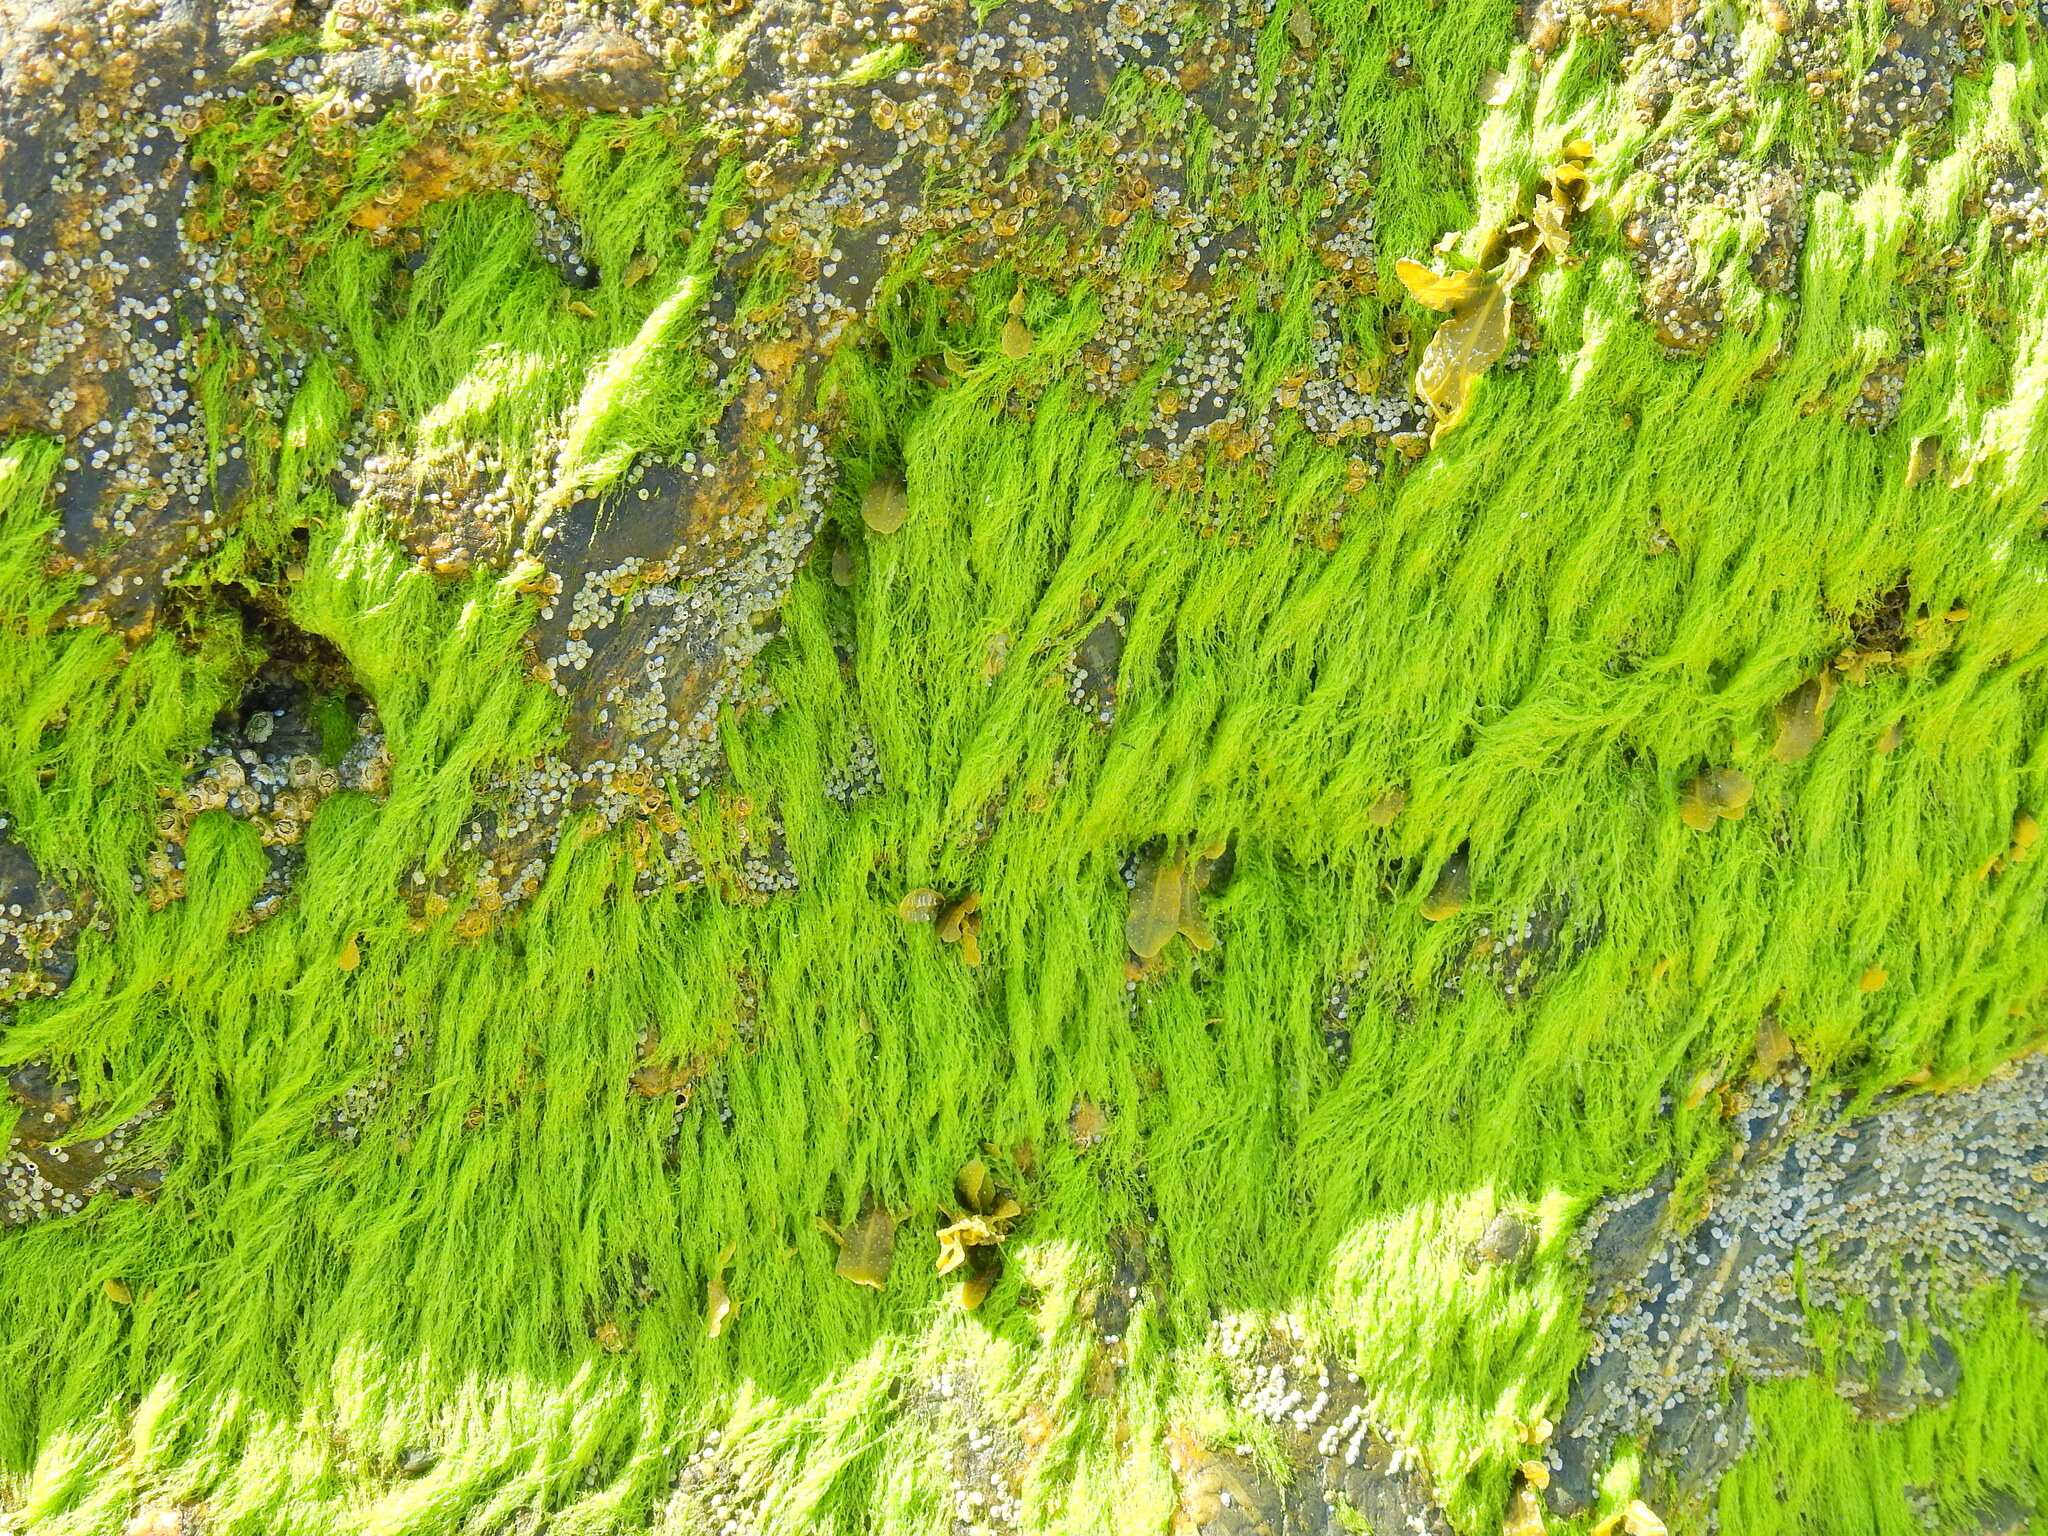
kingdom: Plantae
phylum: Chlorophyta
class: Ulvophyceae
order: Ulvales
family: Ulvaceae
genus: Ulva
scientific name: Ulva intestinalis
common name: Gut weed
